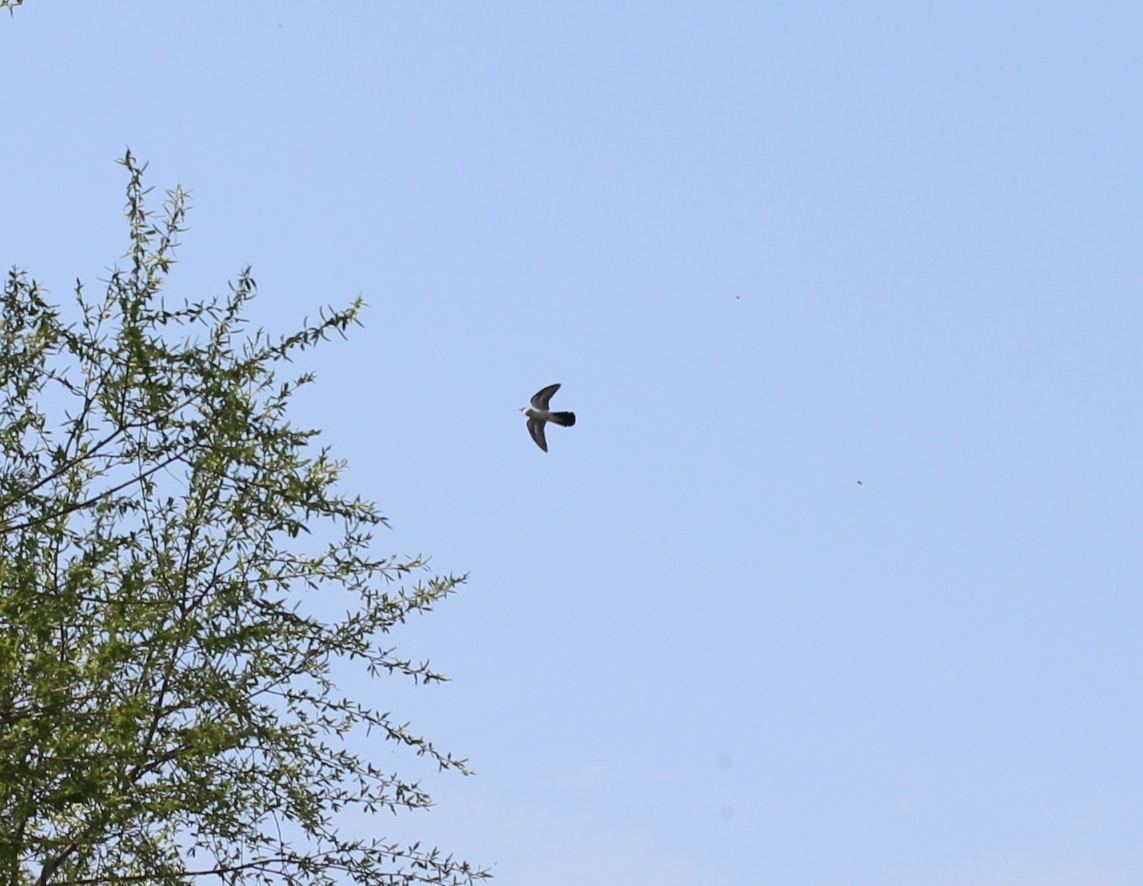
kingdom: Animalia
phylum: Chordata
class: Aves
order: Cuculiformes
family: Cuculidae
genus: Cuculus
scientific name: Cuculus canorus
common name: Common cuckoo
